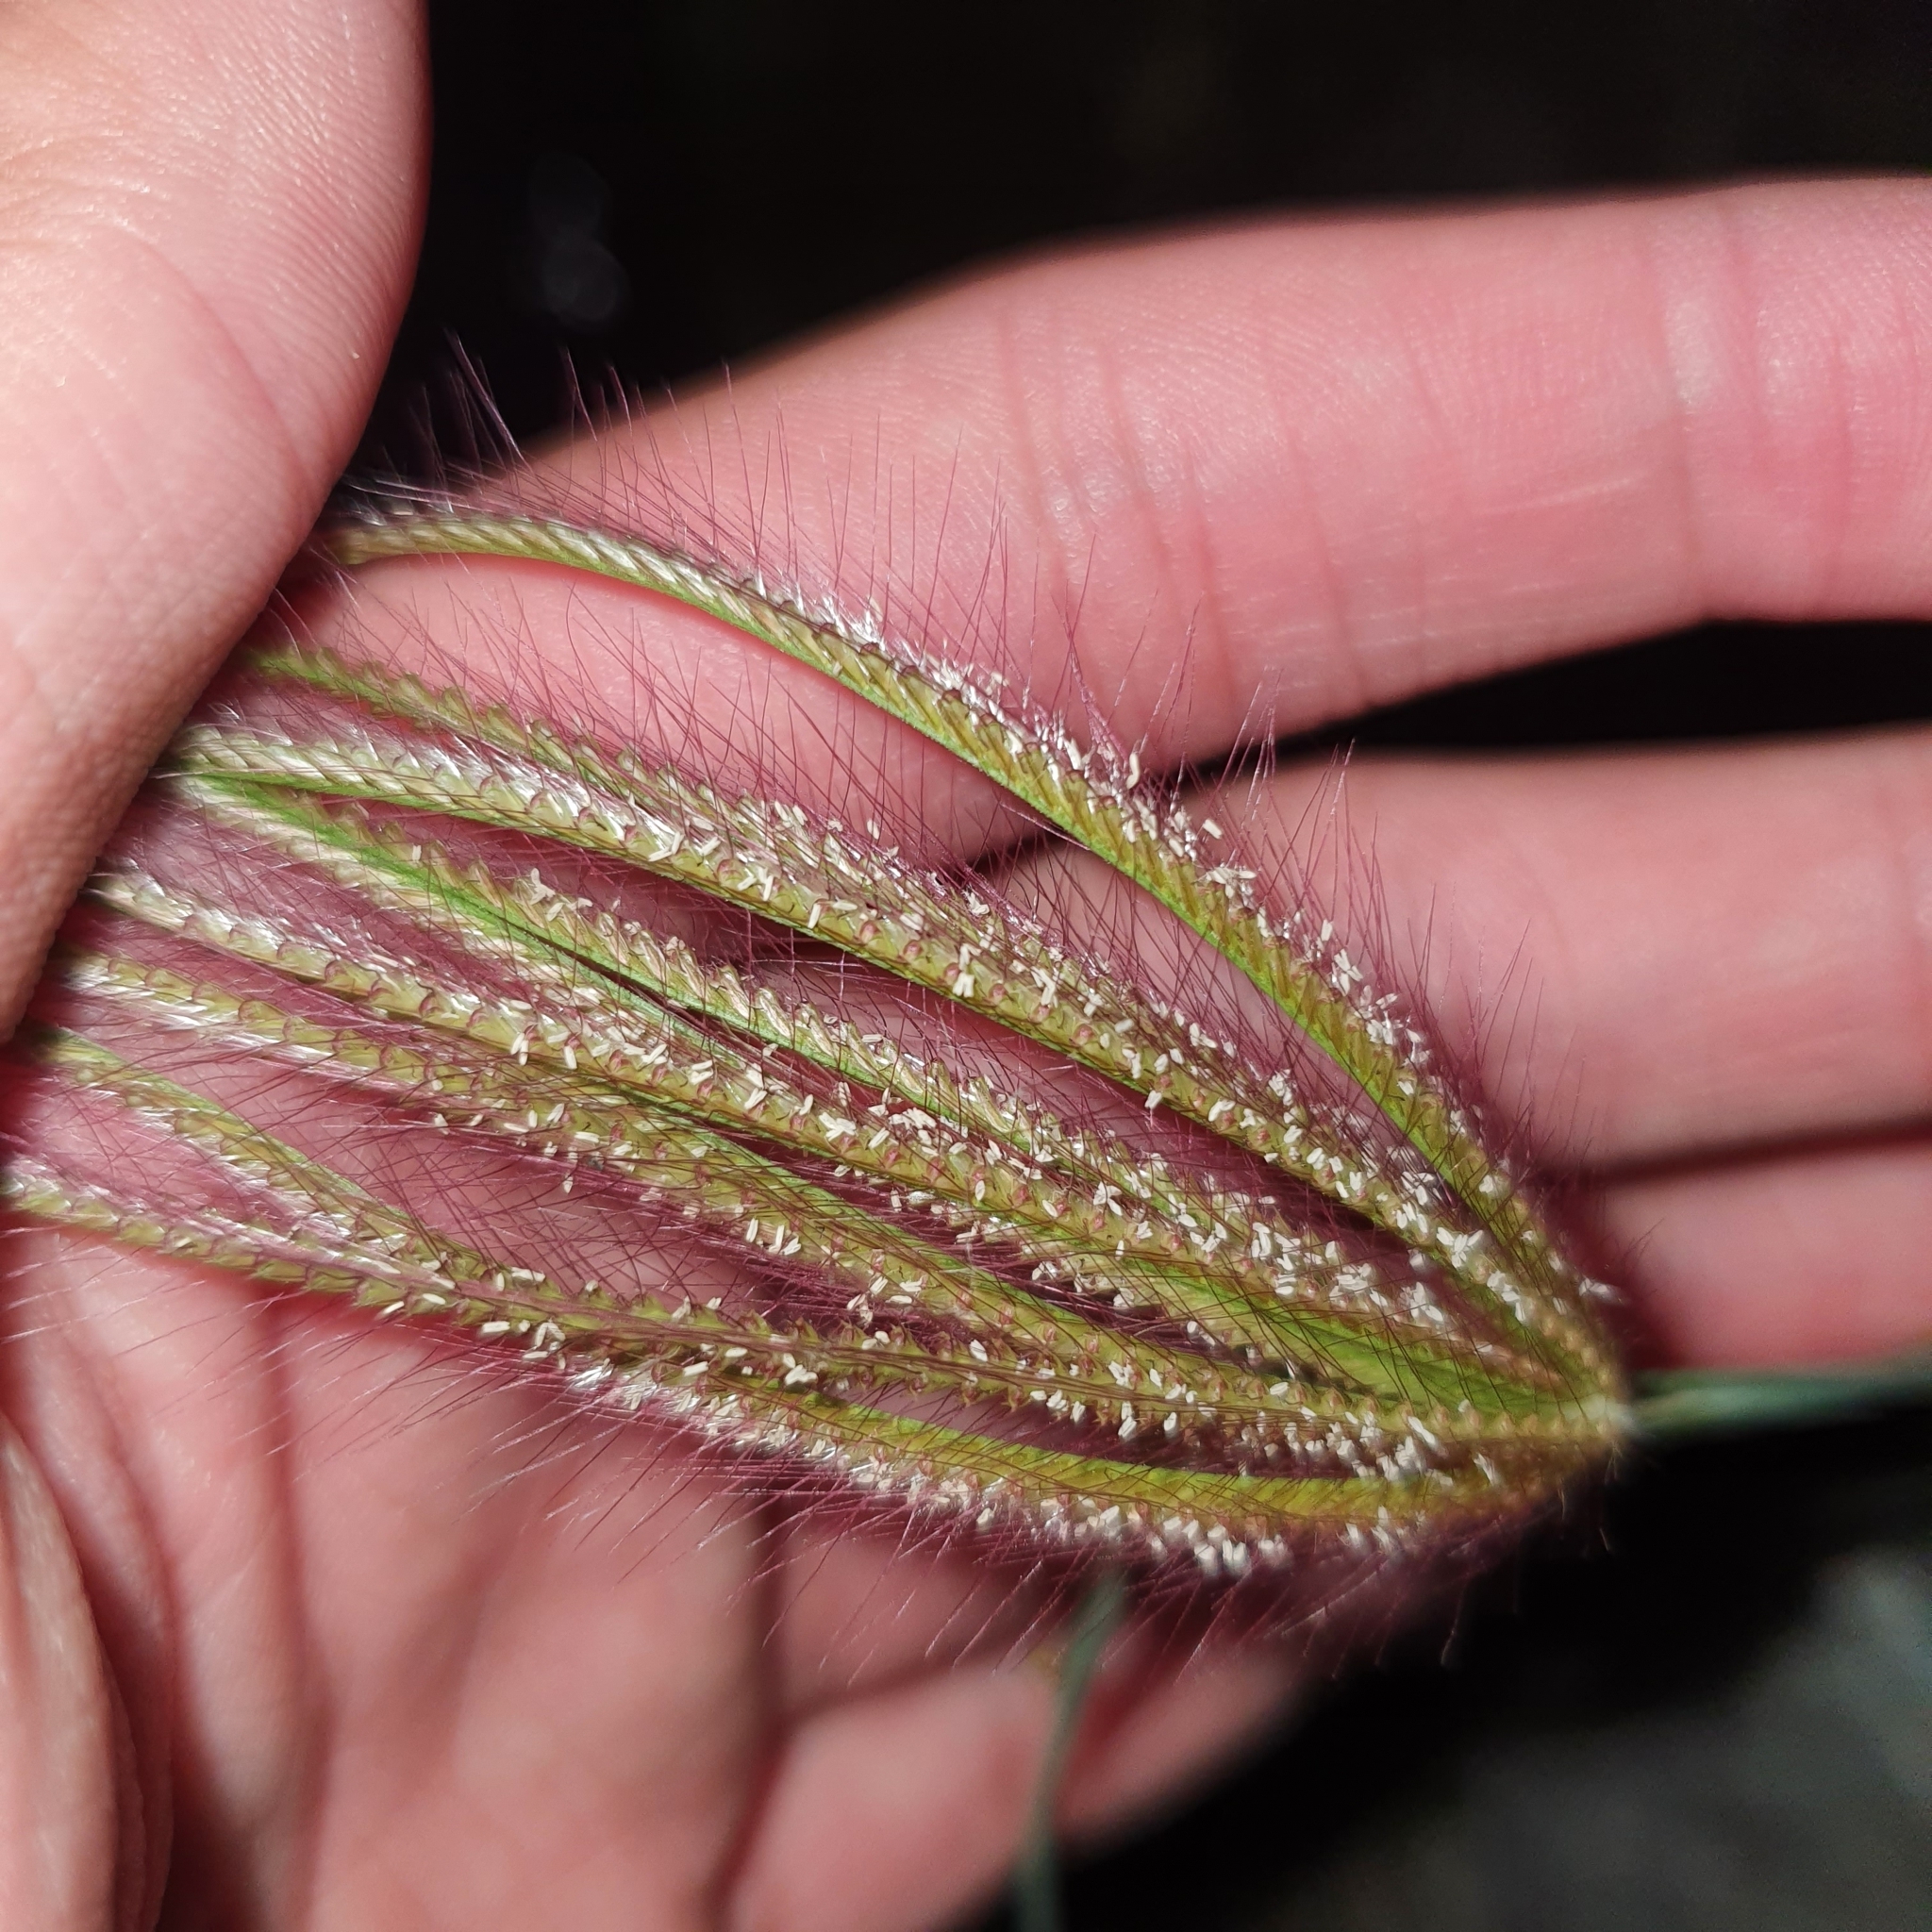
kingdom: Plantae
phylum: Tracheophyta
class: Liliopsida
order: Poales
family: Poaceae
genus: Chloris
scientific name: Chloris barbata
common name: Swollen fingergrass
